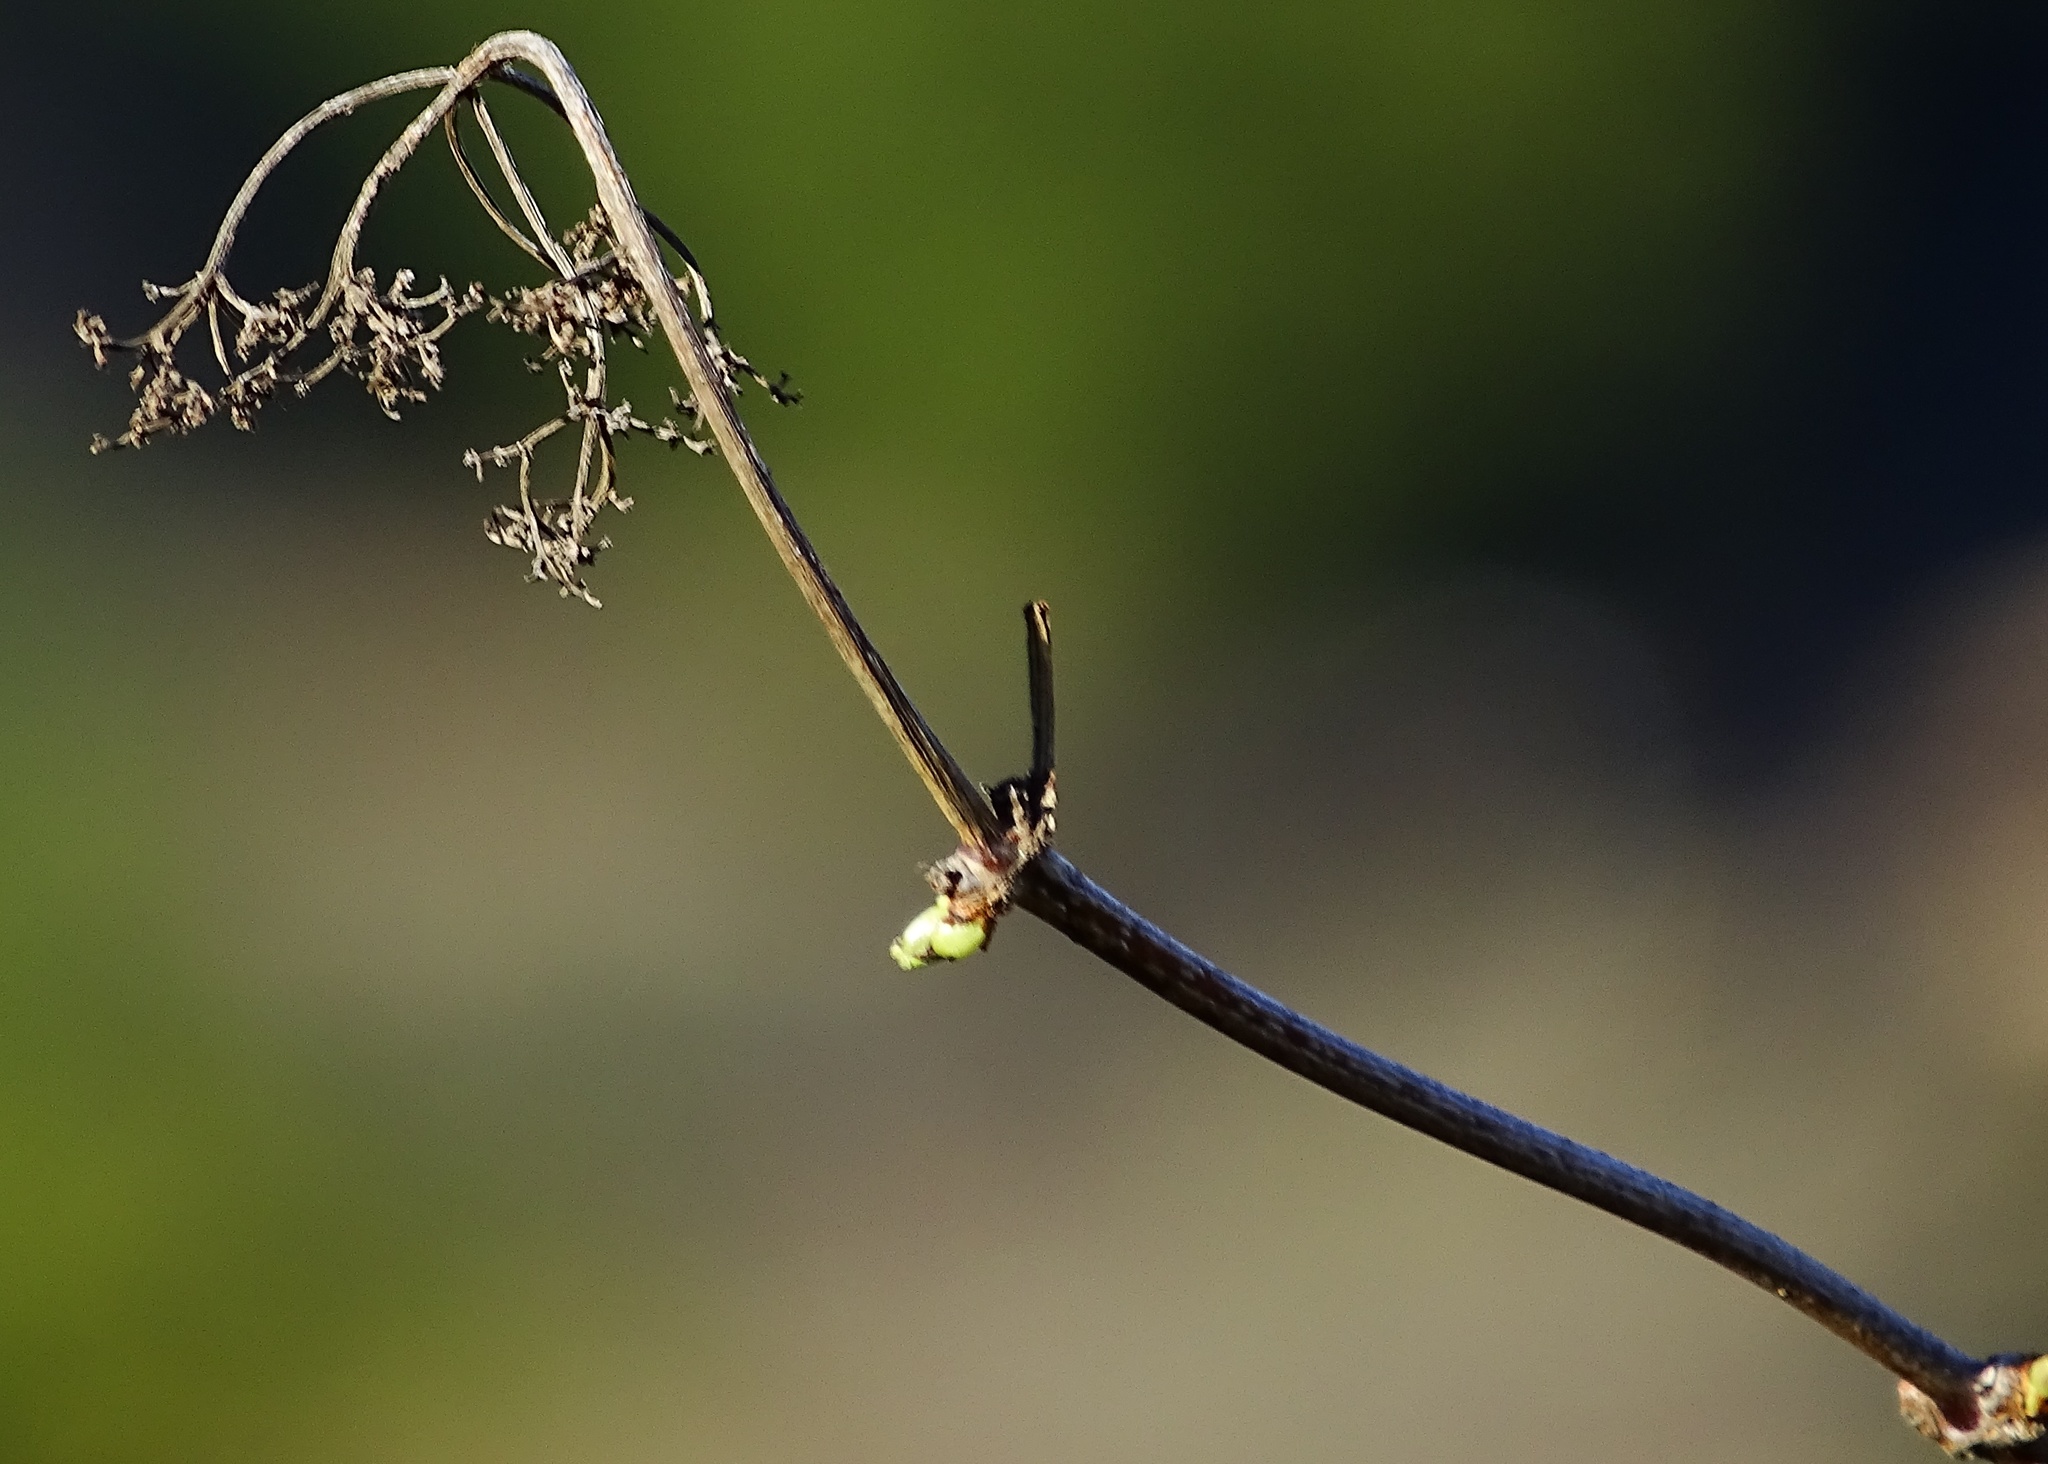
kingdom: Plantae
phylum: Tracheophyta
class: Magnoliopsida
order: Dipsacales
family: Viburnaceae
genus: Sambucus
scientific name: Sambucus cerulea
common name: Blue elder
